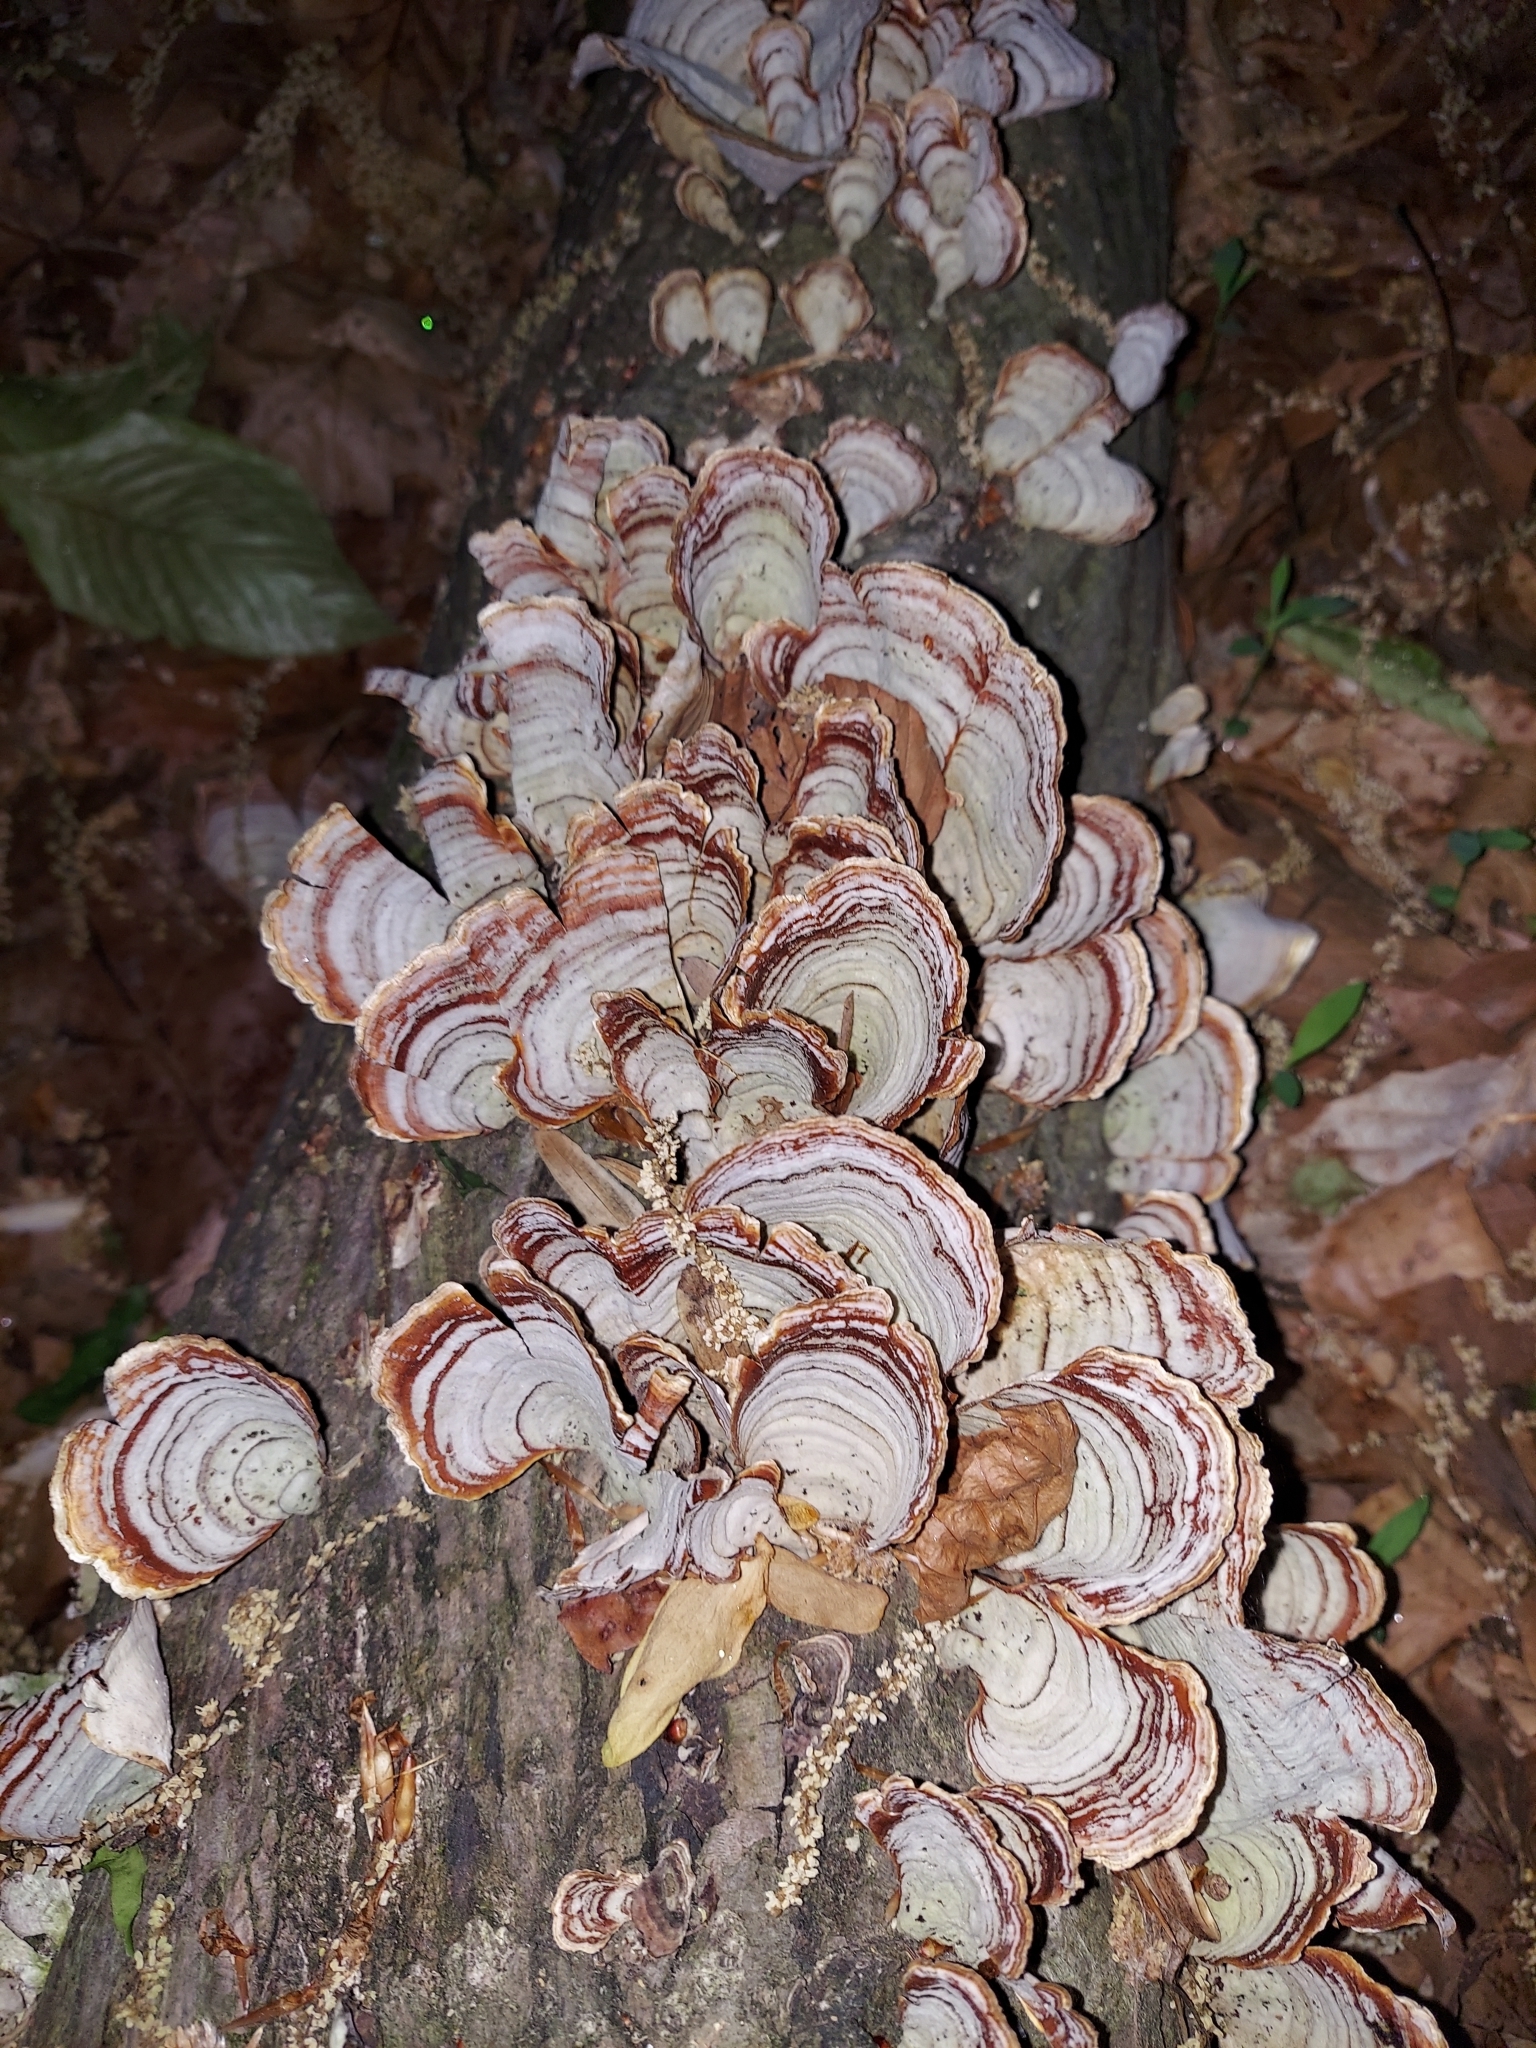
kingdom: Fungi
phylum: Basidiomycota
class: Agaricomycetes
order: Russulales
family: Stereaceae
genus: Stereum
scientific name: Stereum lobatum
